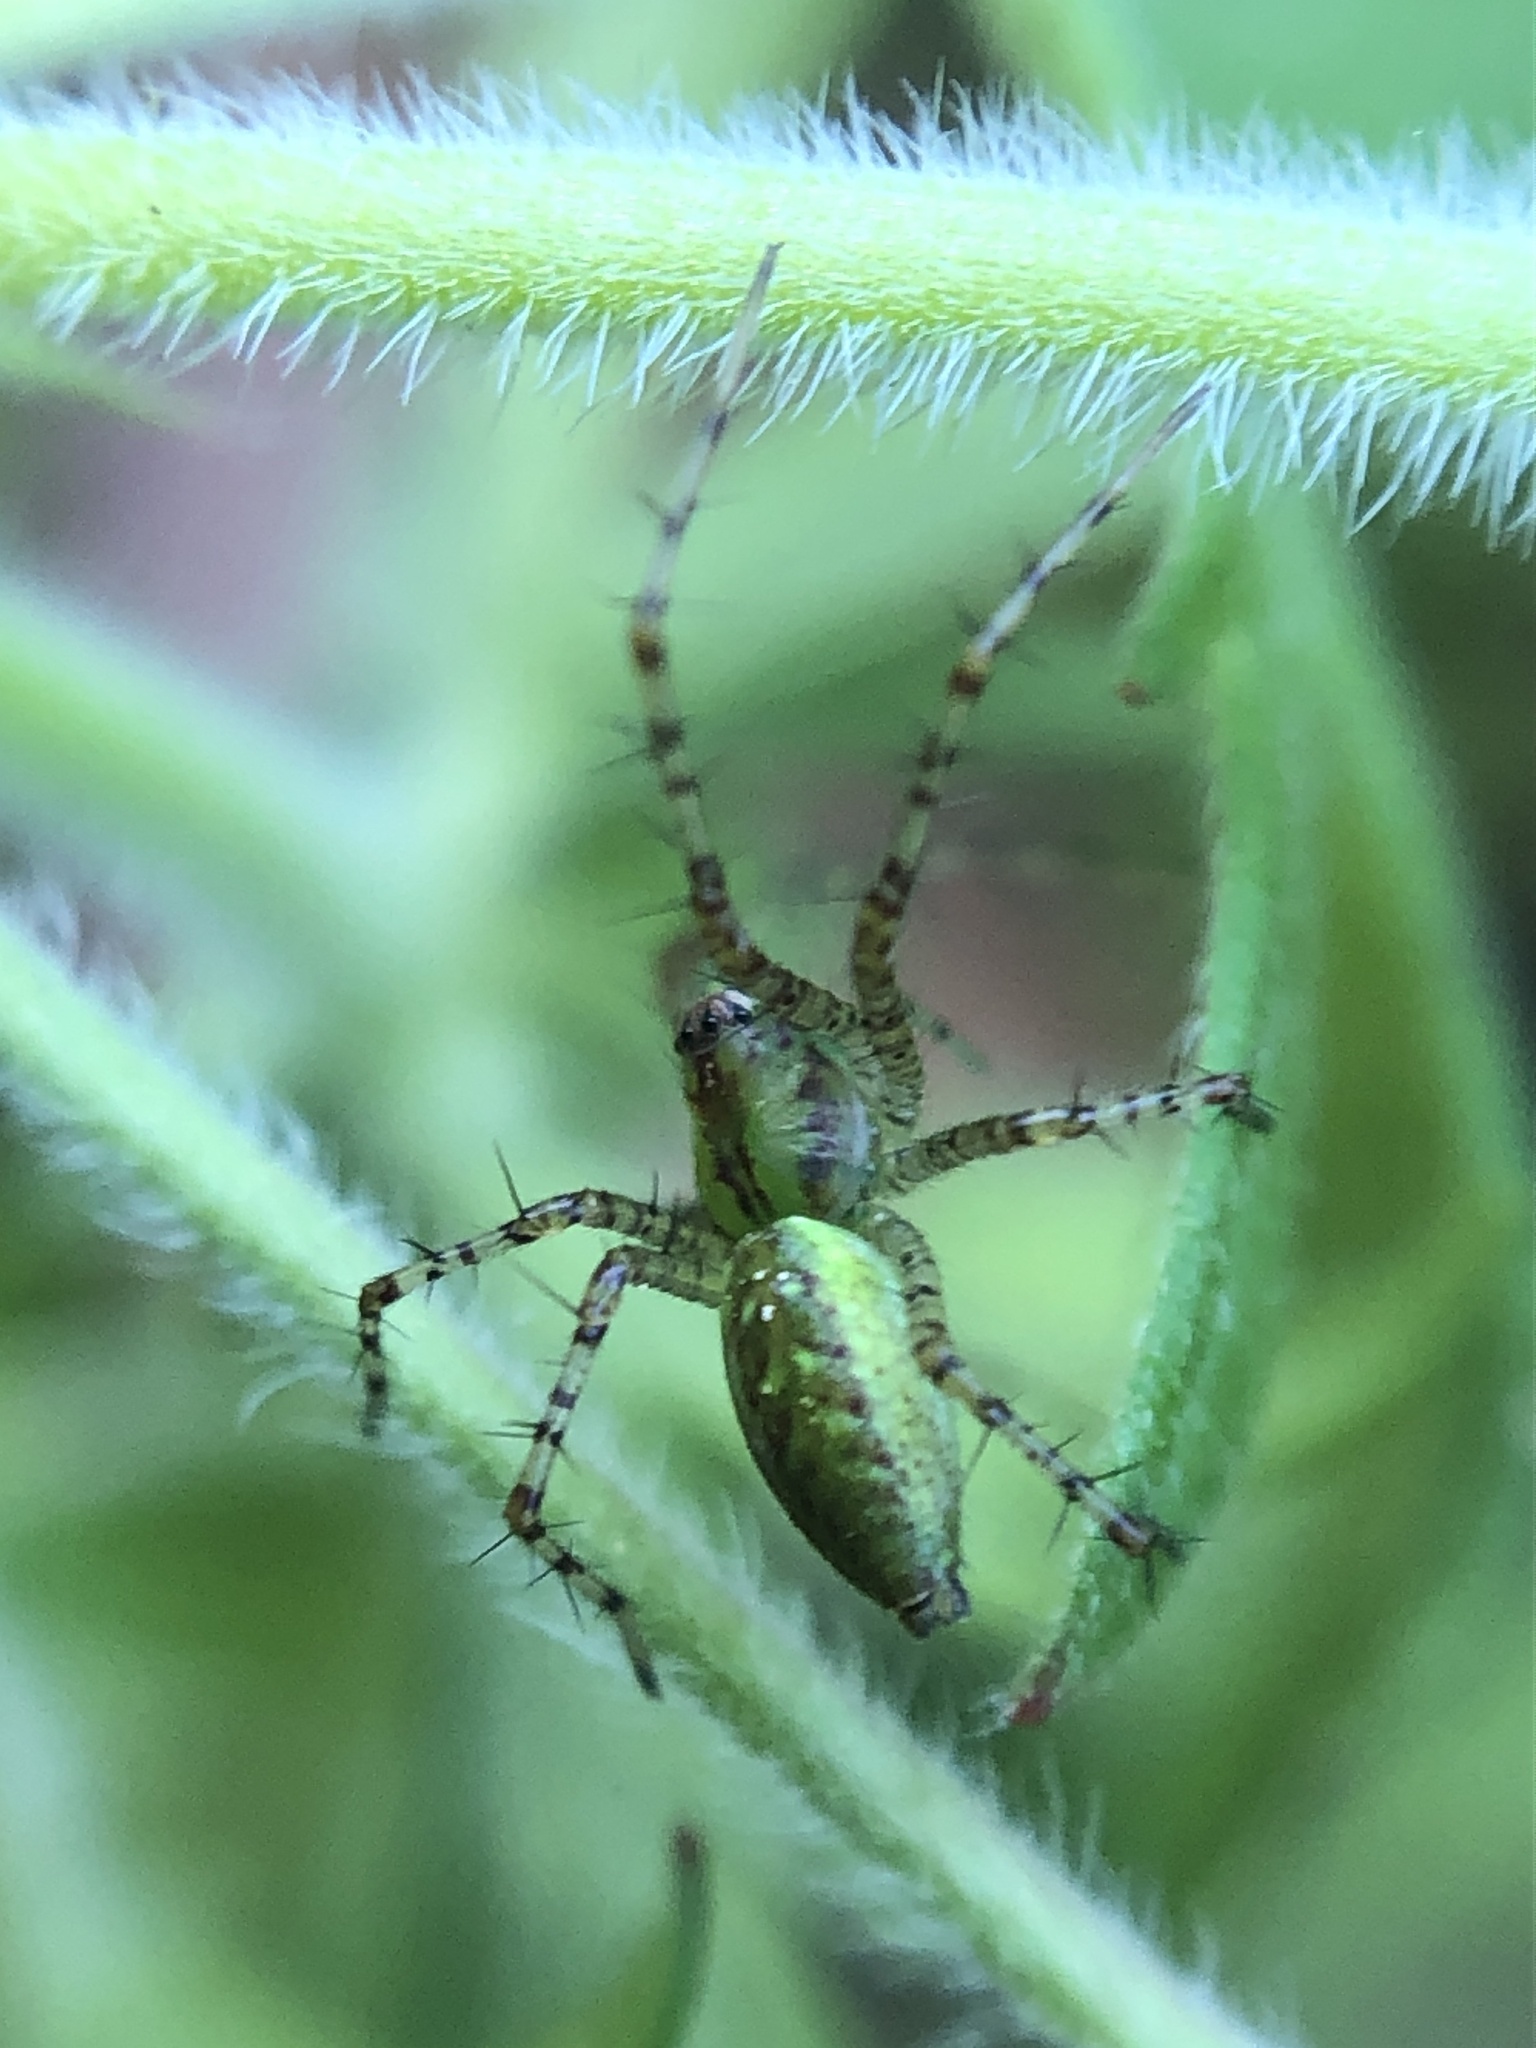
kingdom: Animalia
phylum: Arthropoda
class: Arachnida
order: Araneae
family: Oxyopidae
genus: Peucetia
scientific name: Peucetia viridans
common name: Lynx spiders
